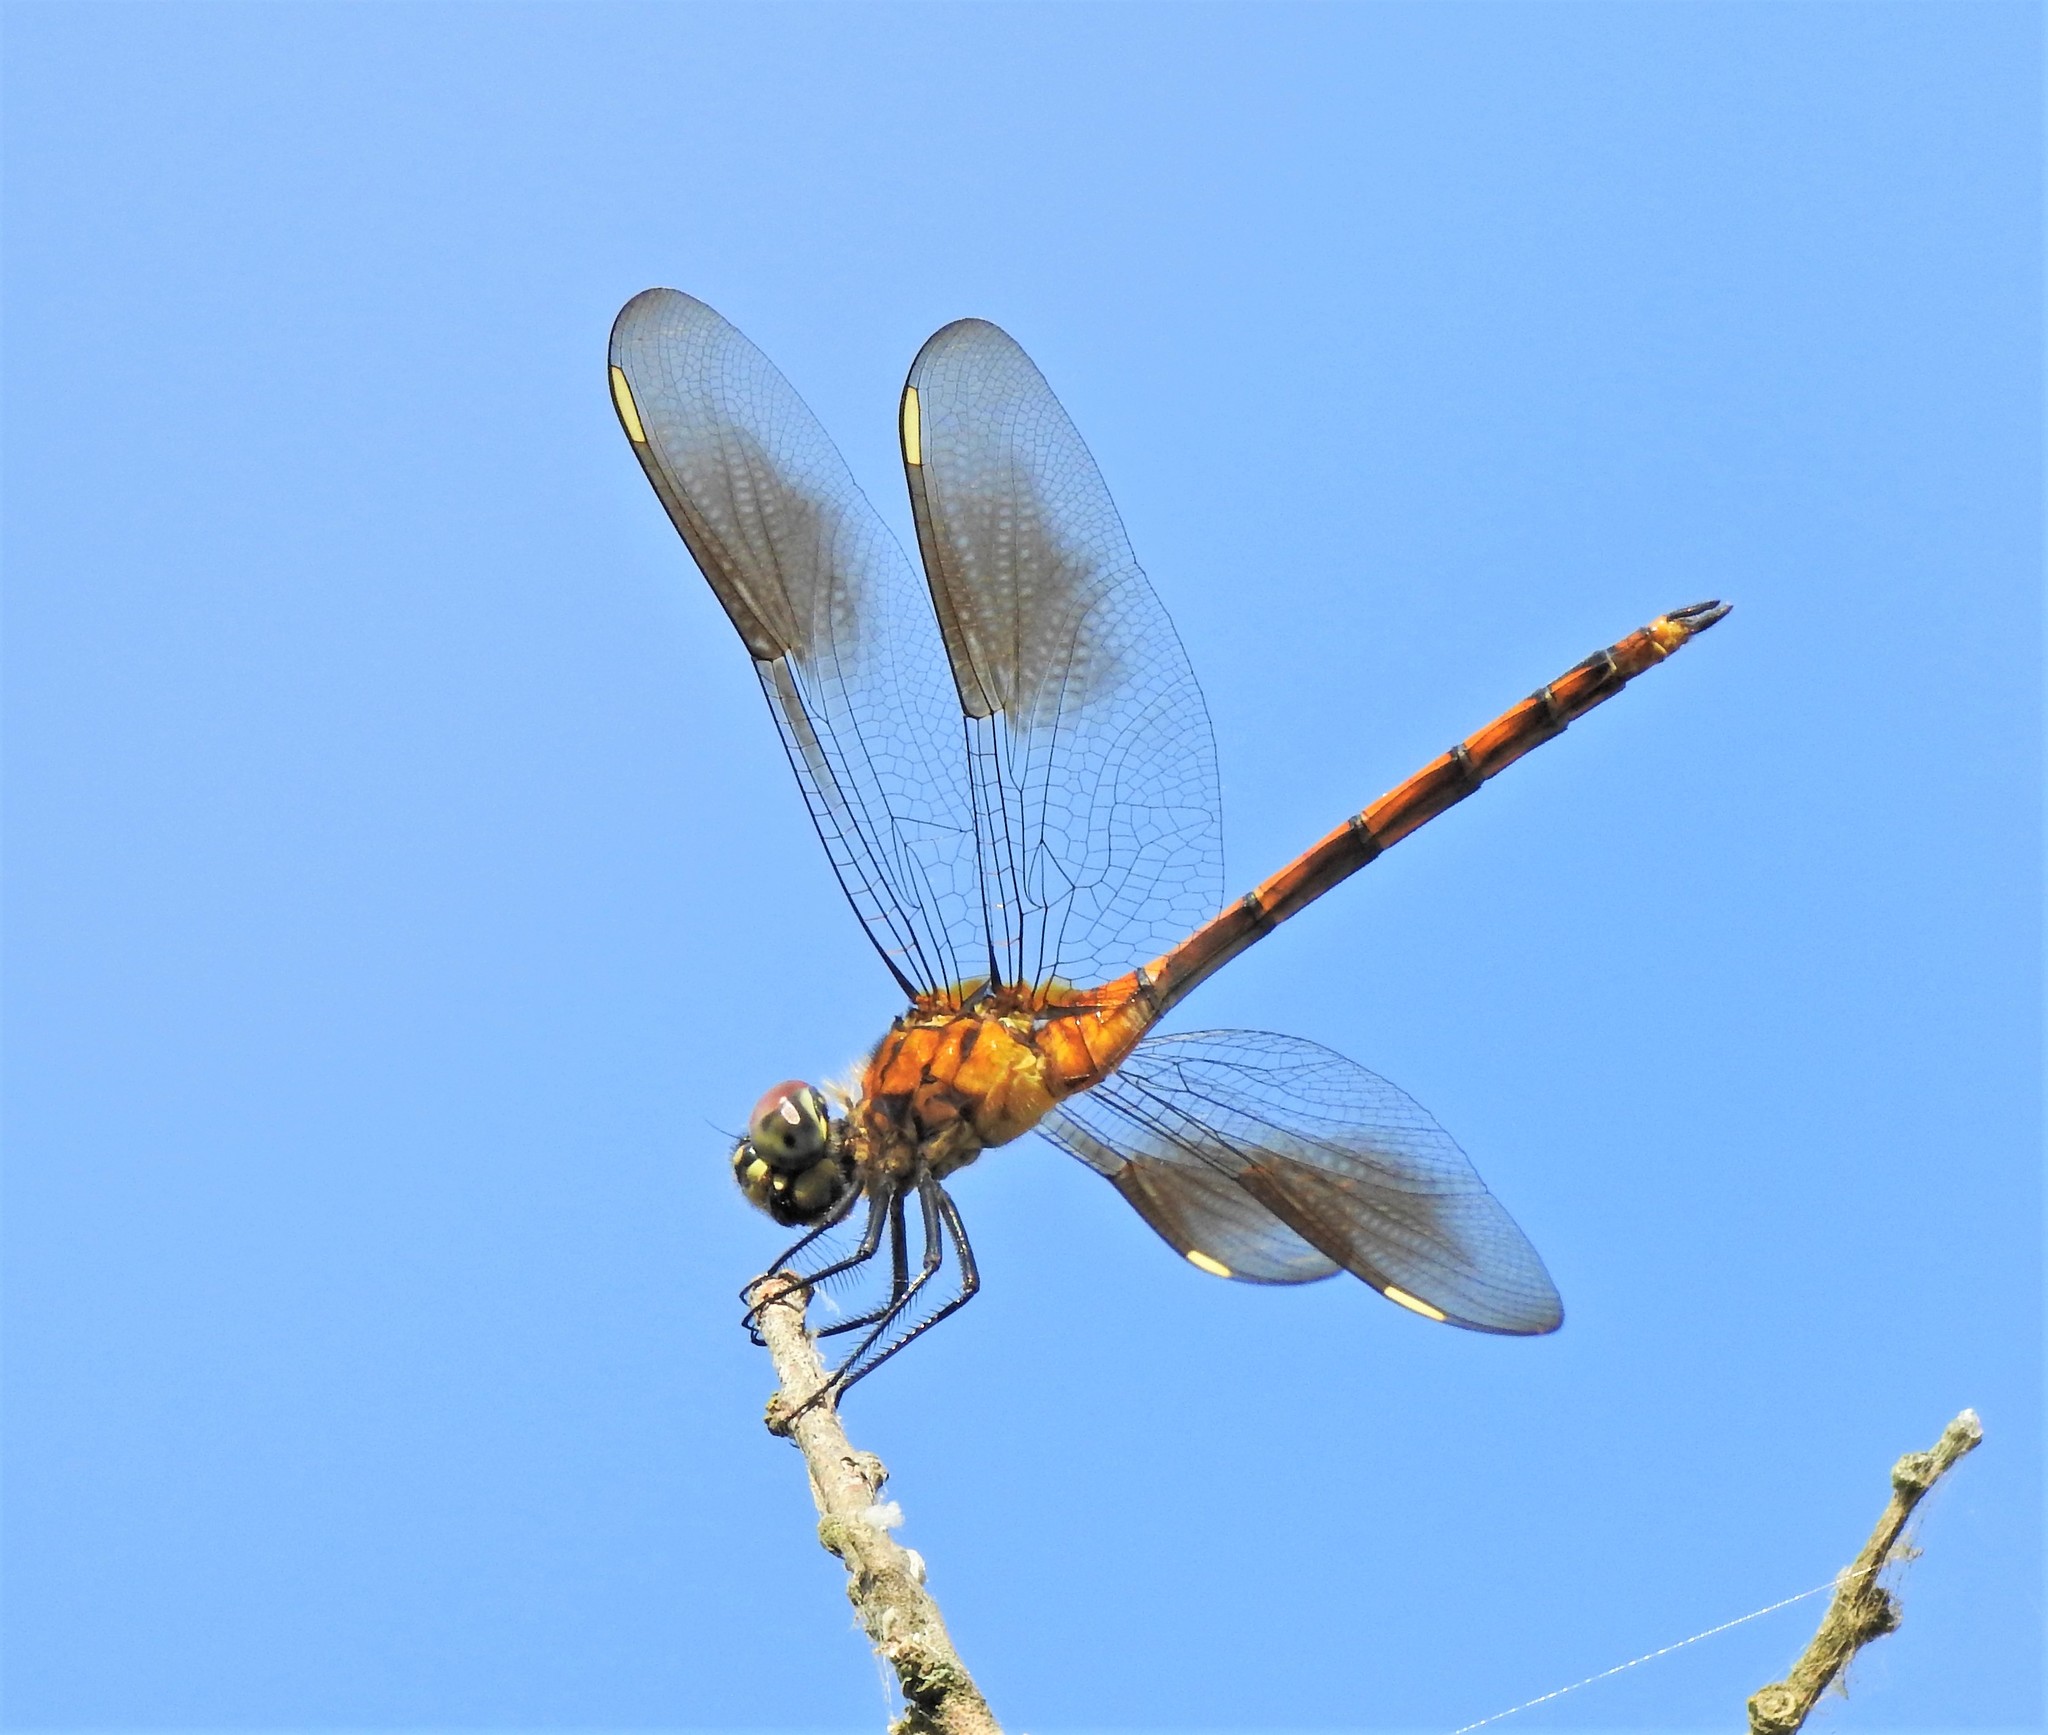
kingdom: Animalia
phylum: Arthropoda
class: Insecta
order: Odonata
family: Libellulidae
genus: Brachymesia
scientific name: Brachymesia gravida
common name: Four-spotted pennant
